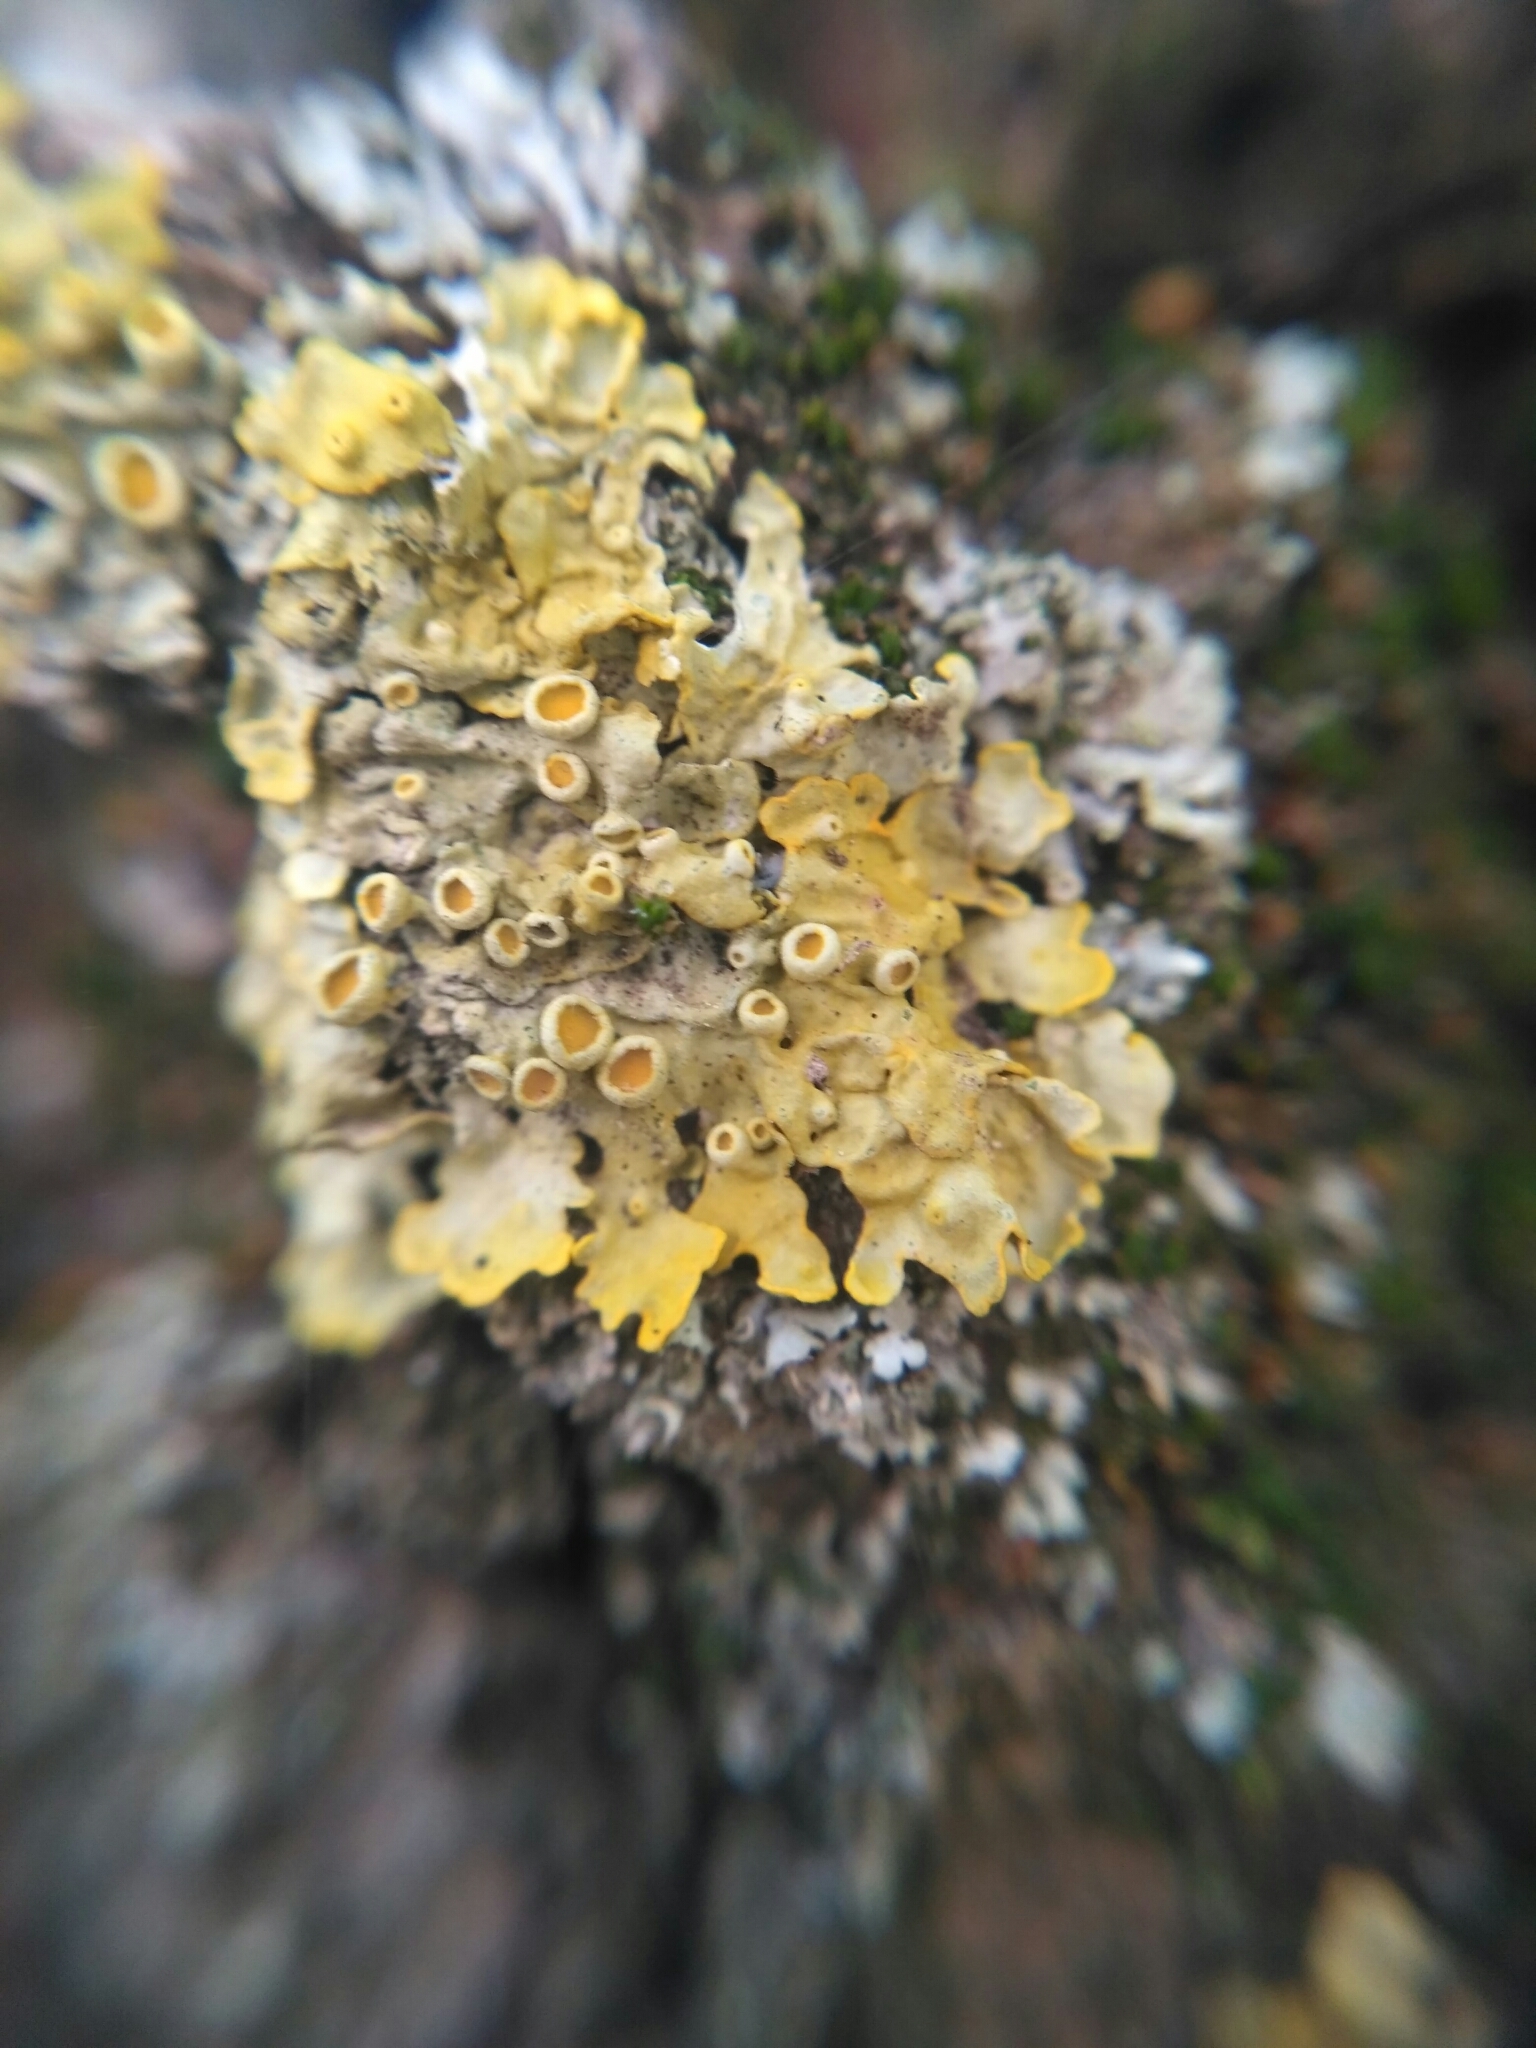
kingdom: Fungi
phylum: Ascomycota
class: Lecanoromycetes
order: Teloschistales
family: Teloschistaceae
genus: Xanthoria
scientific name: Xanthoria parietina
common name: Common orange lichen
